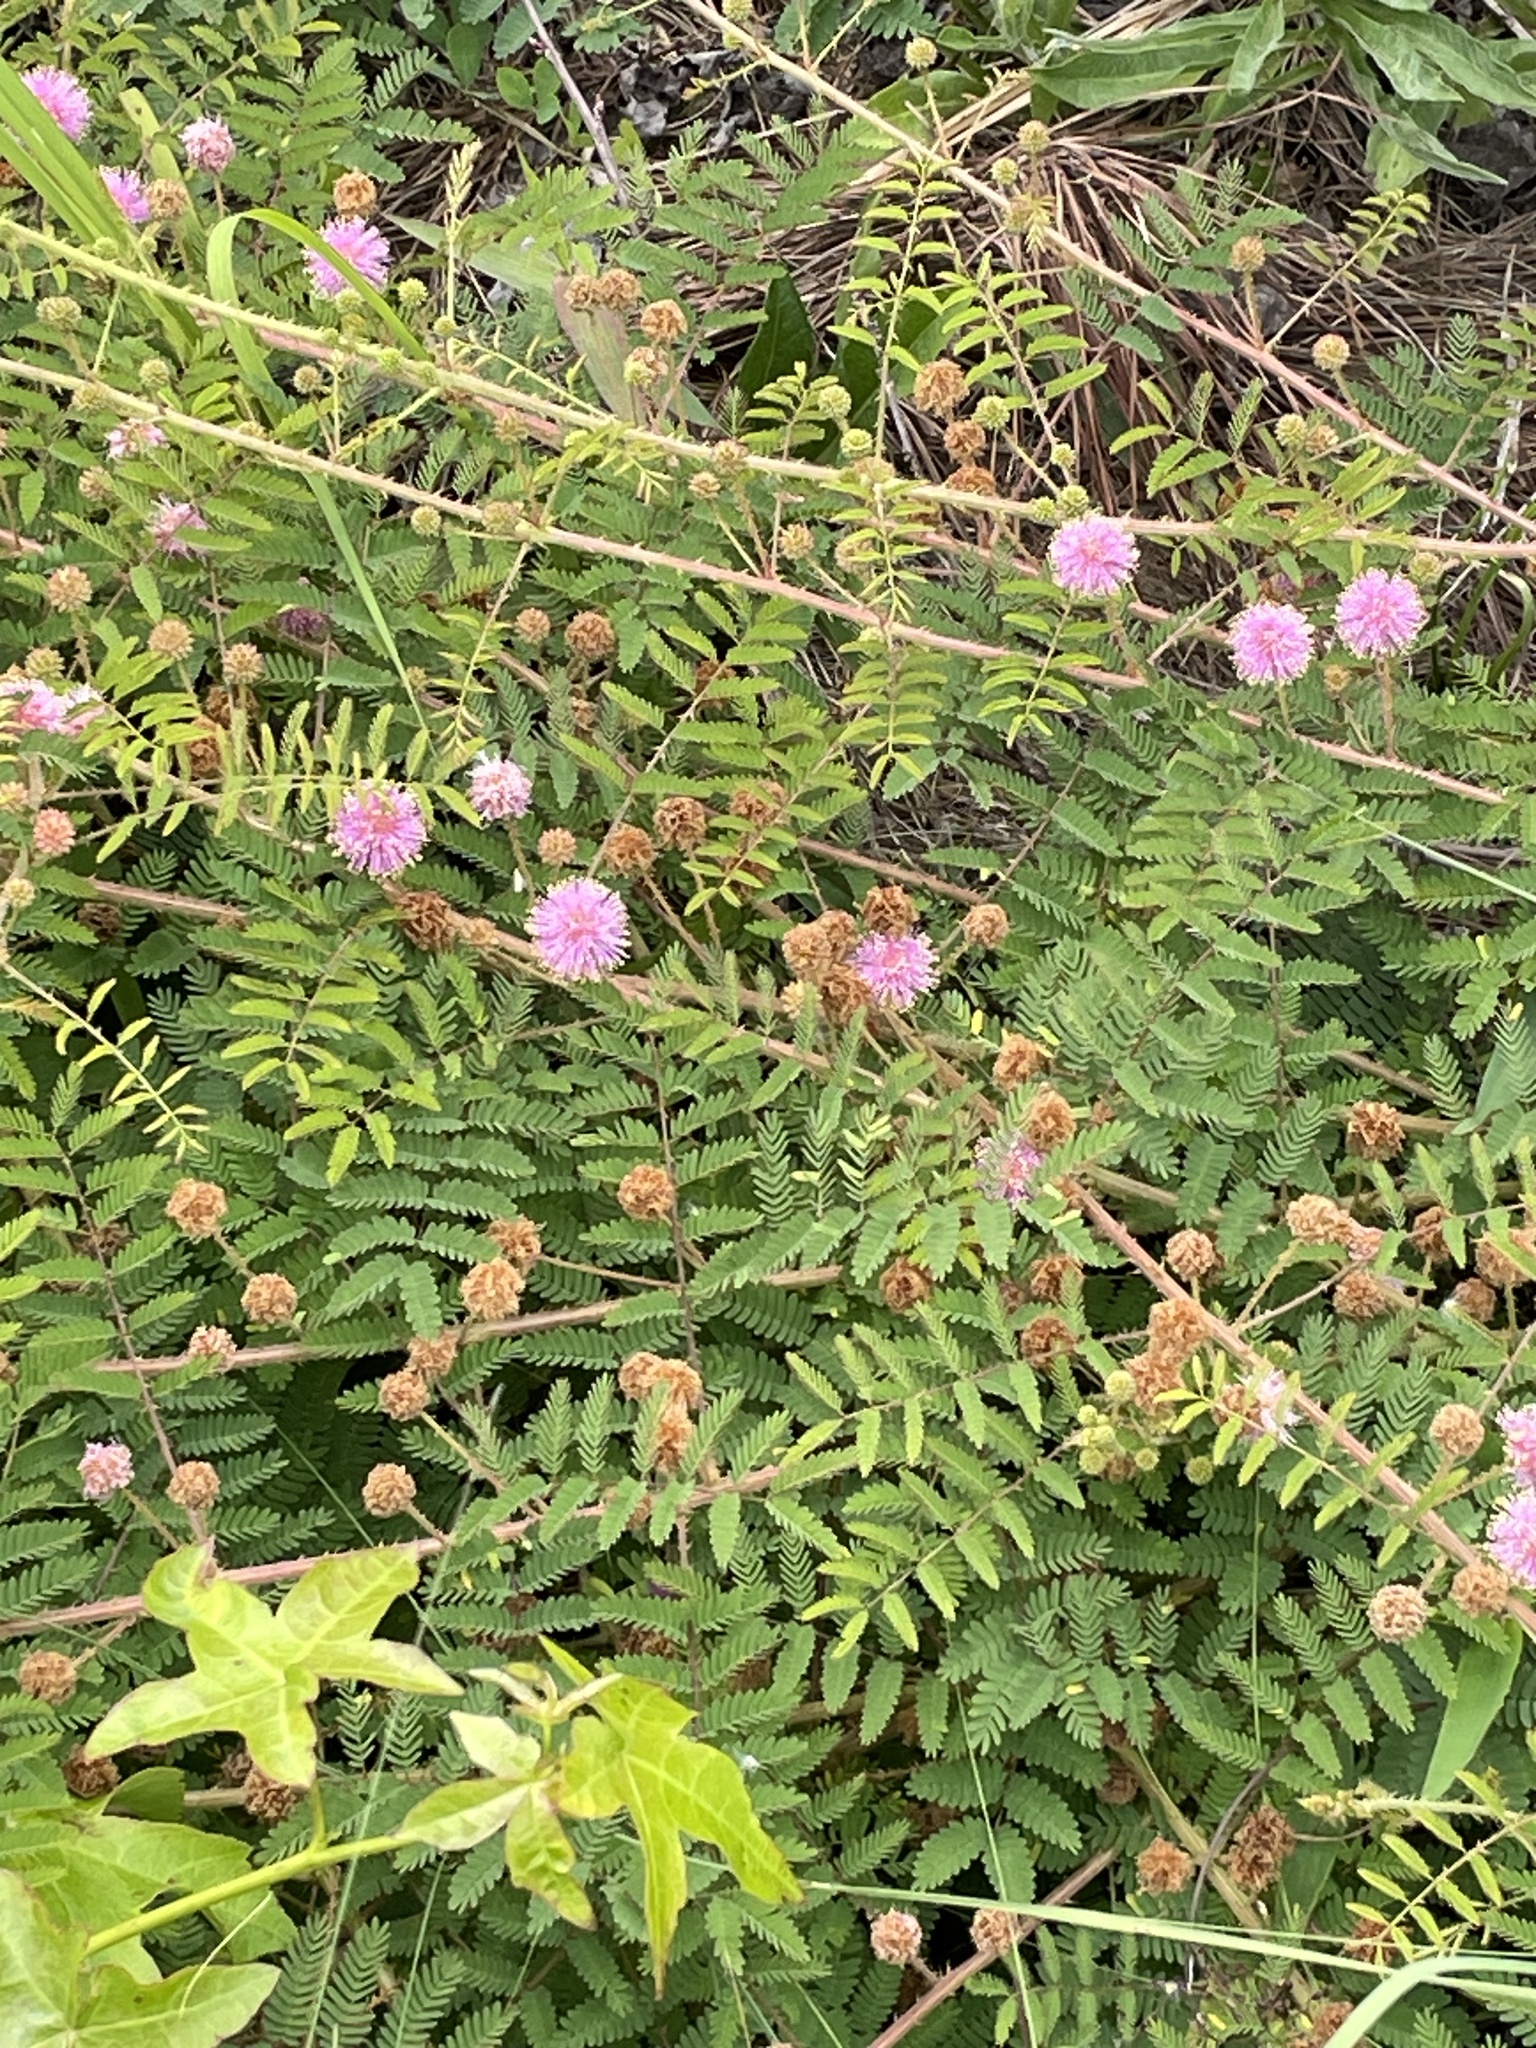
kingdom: Plantae
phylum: Tracheophyta
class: Magnoliopsida
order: Fabales
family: Fabaceae
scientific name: Fabaceae
